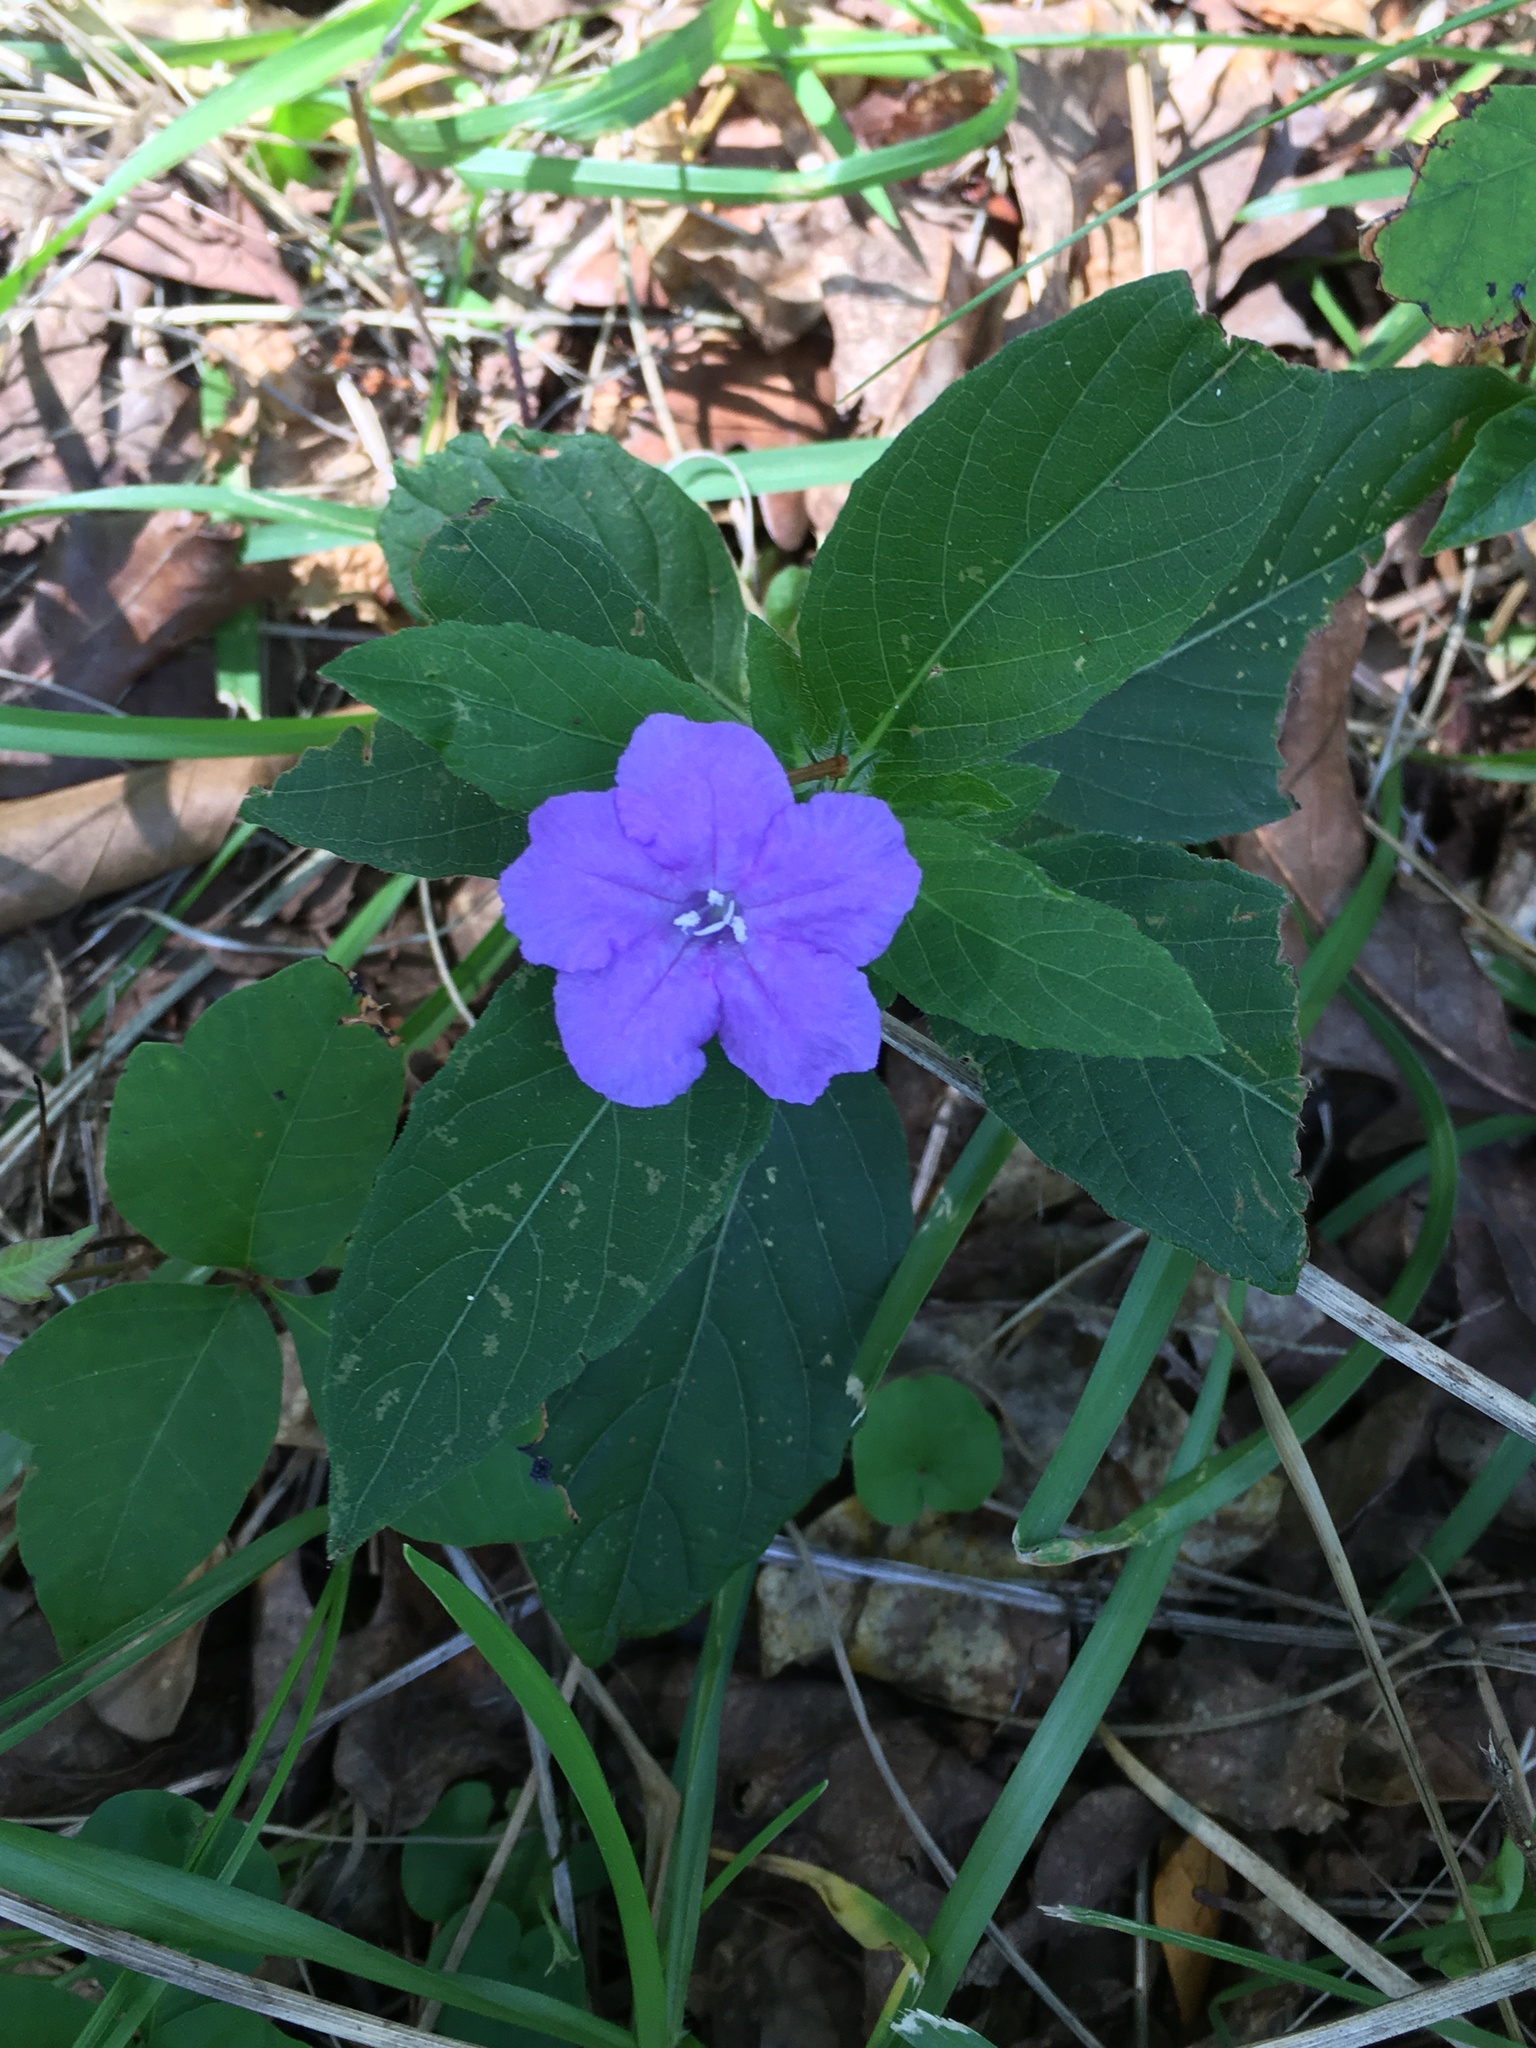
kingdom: Plantae
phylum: Tracheophyta
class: Magnoliopsida
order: Lamiales
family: Acanthaceae
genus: Ruellia
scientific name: Ruellia caroliniensis
